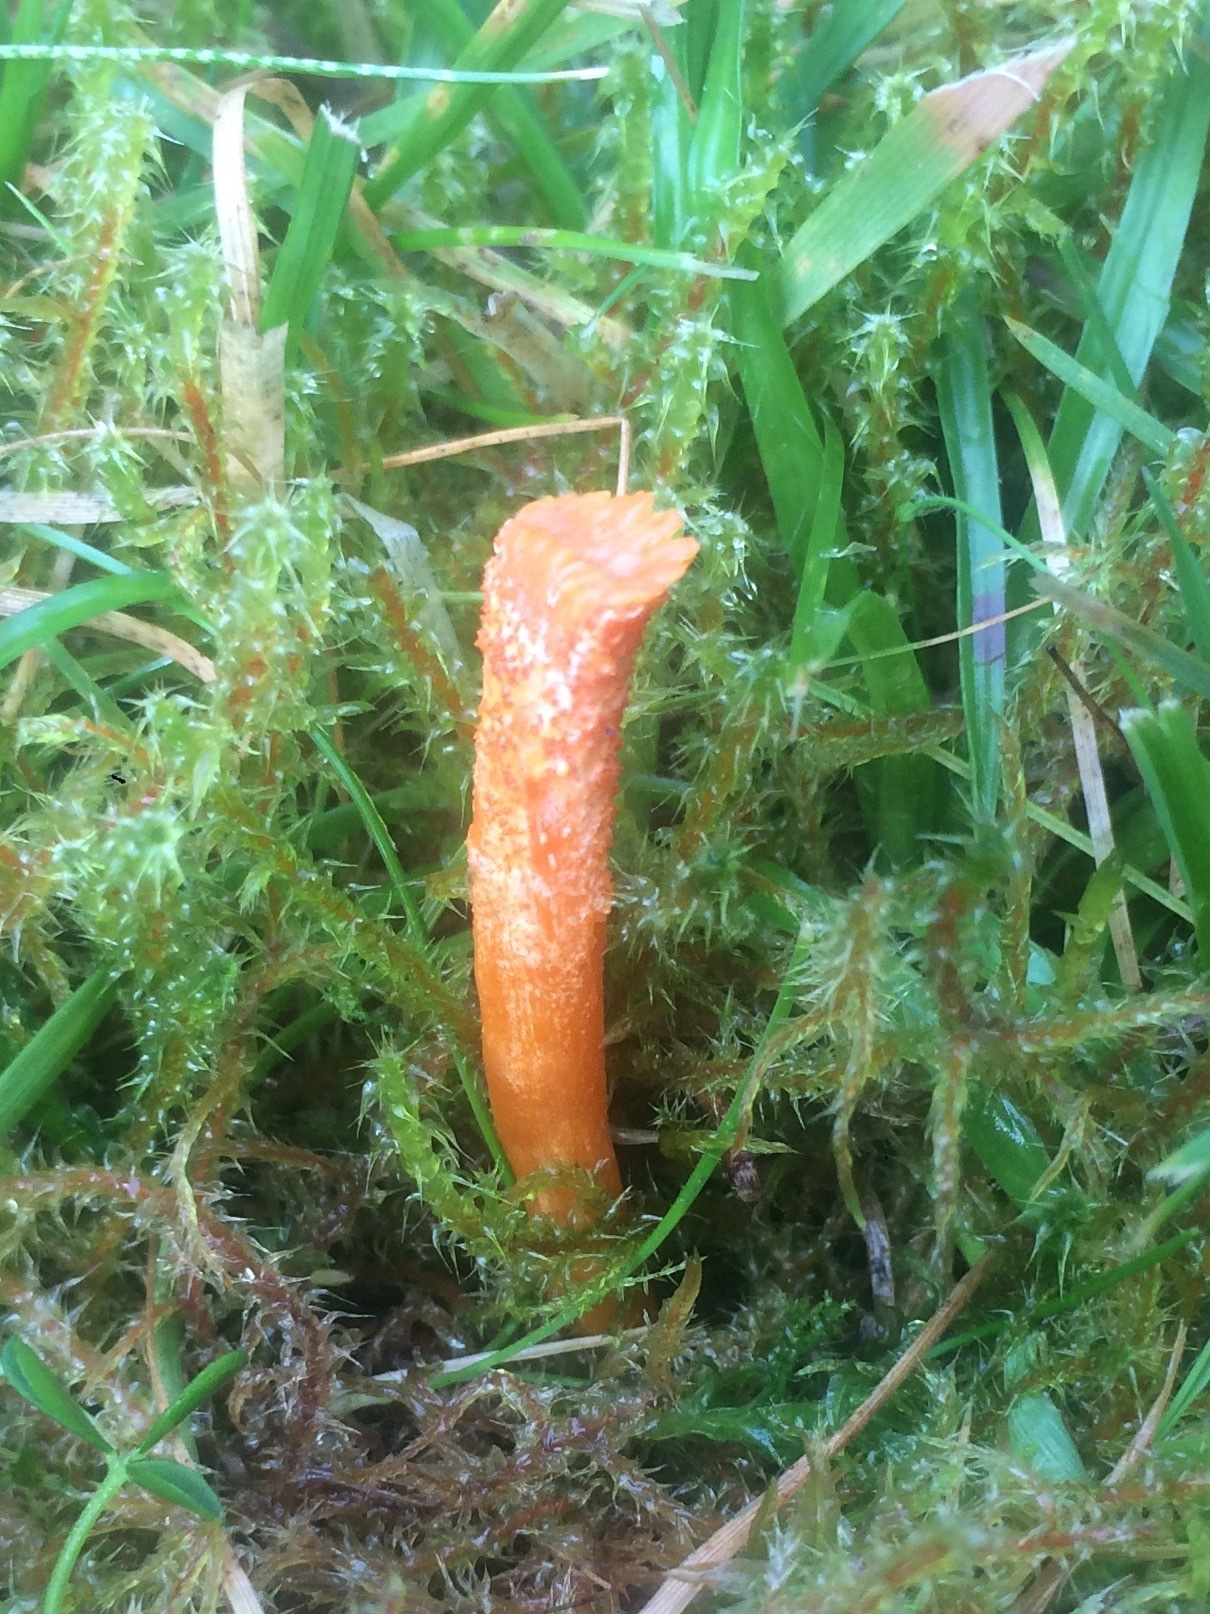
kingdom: Fungi
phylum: Ascomycota
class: Sordariomycetes
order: Hypocreales
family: Cordycipitaceae
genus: Cordyceps
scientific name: Cordyceps militaris
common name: Scarlet caterpillar fungus
